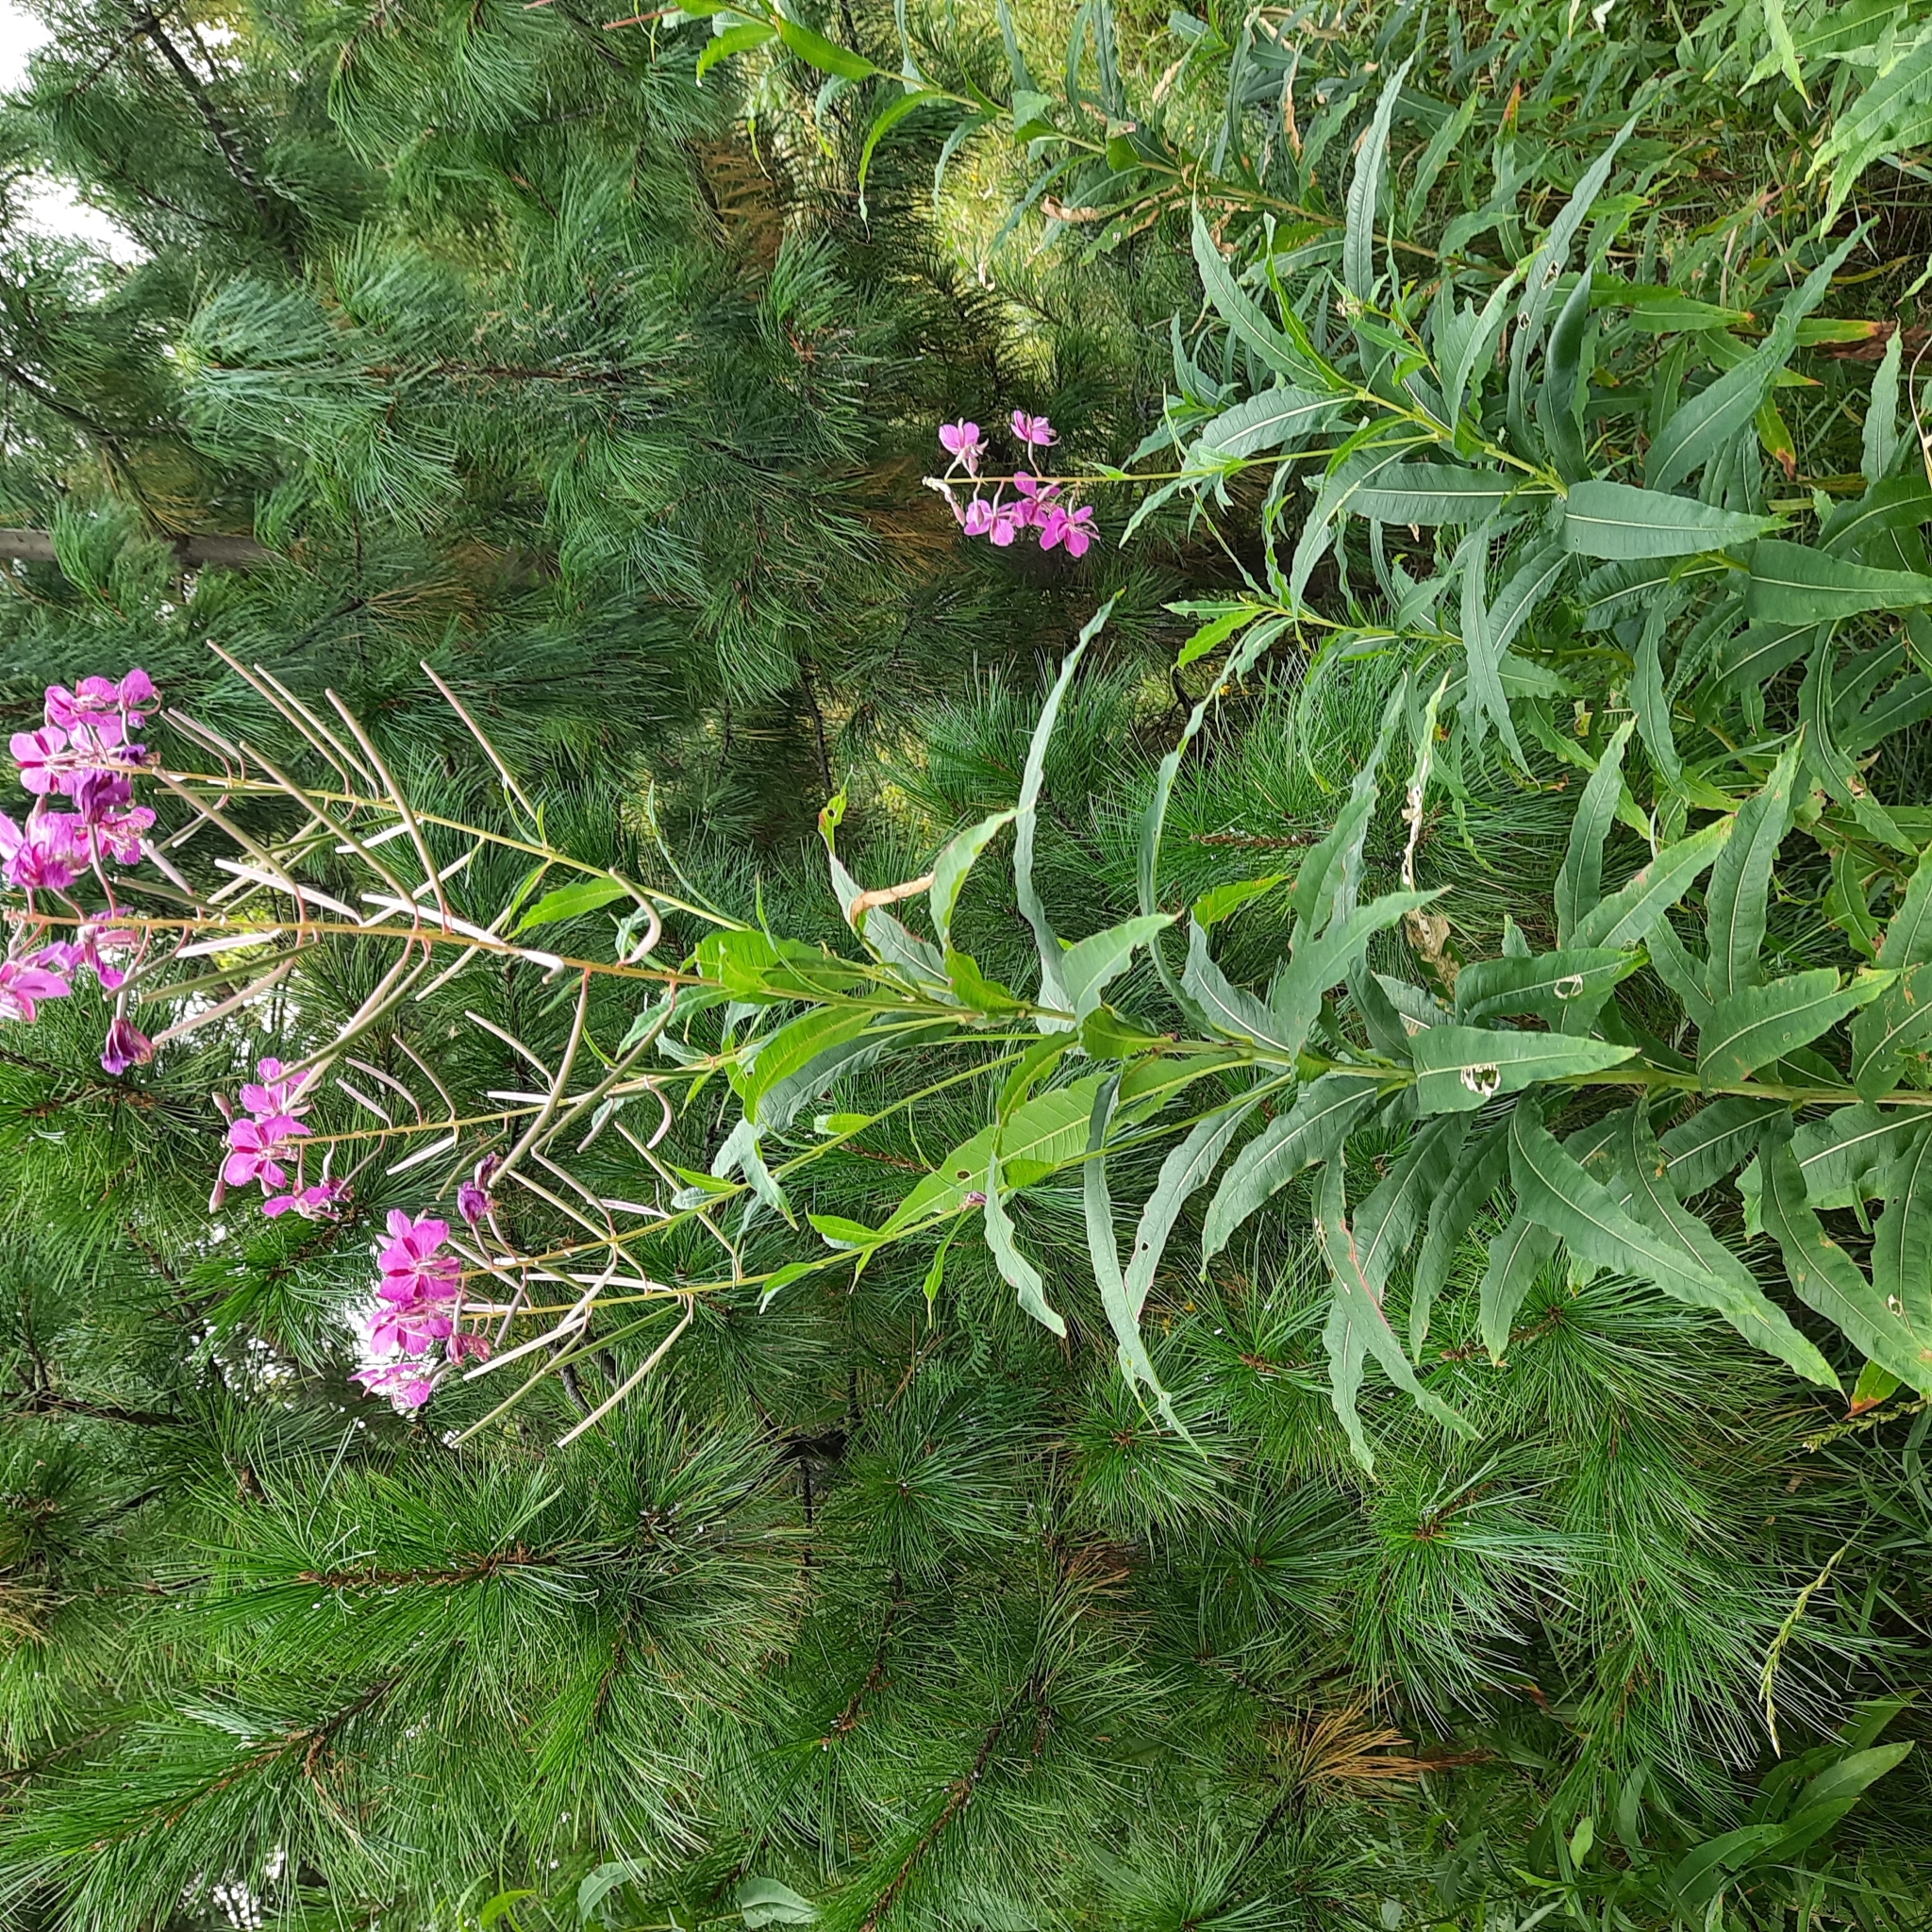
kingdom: Plantae
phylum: Tracheophyta
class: Magnoliopsida
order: Myrtales
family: Onagraceae
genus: Chamaenerion
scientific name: Chamaenerion angustifolium
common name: Fireweed
